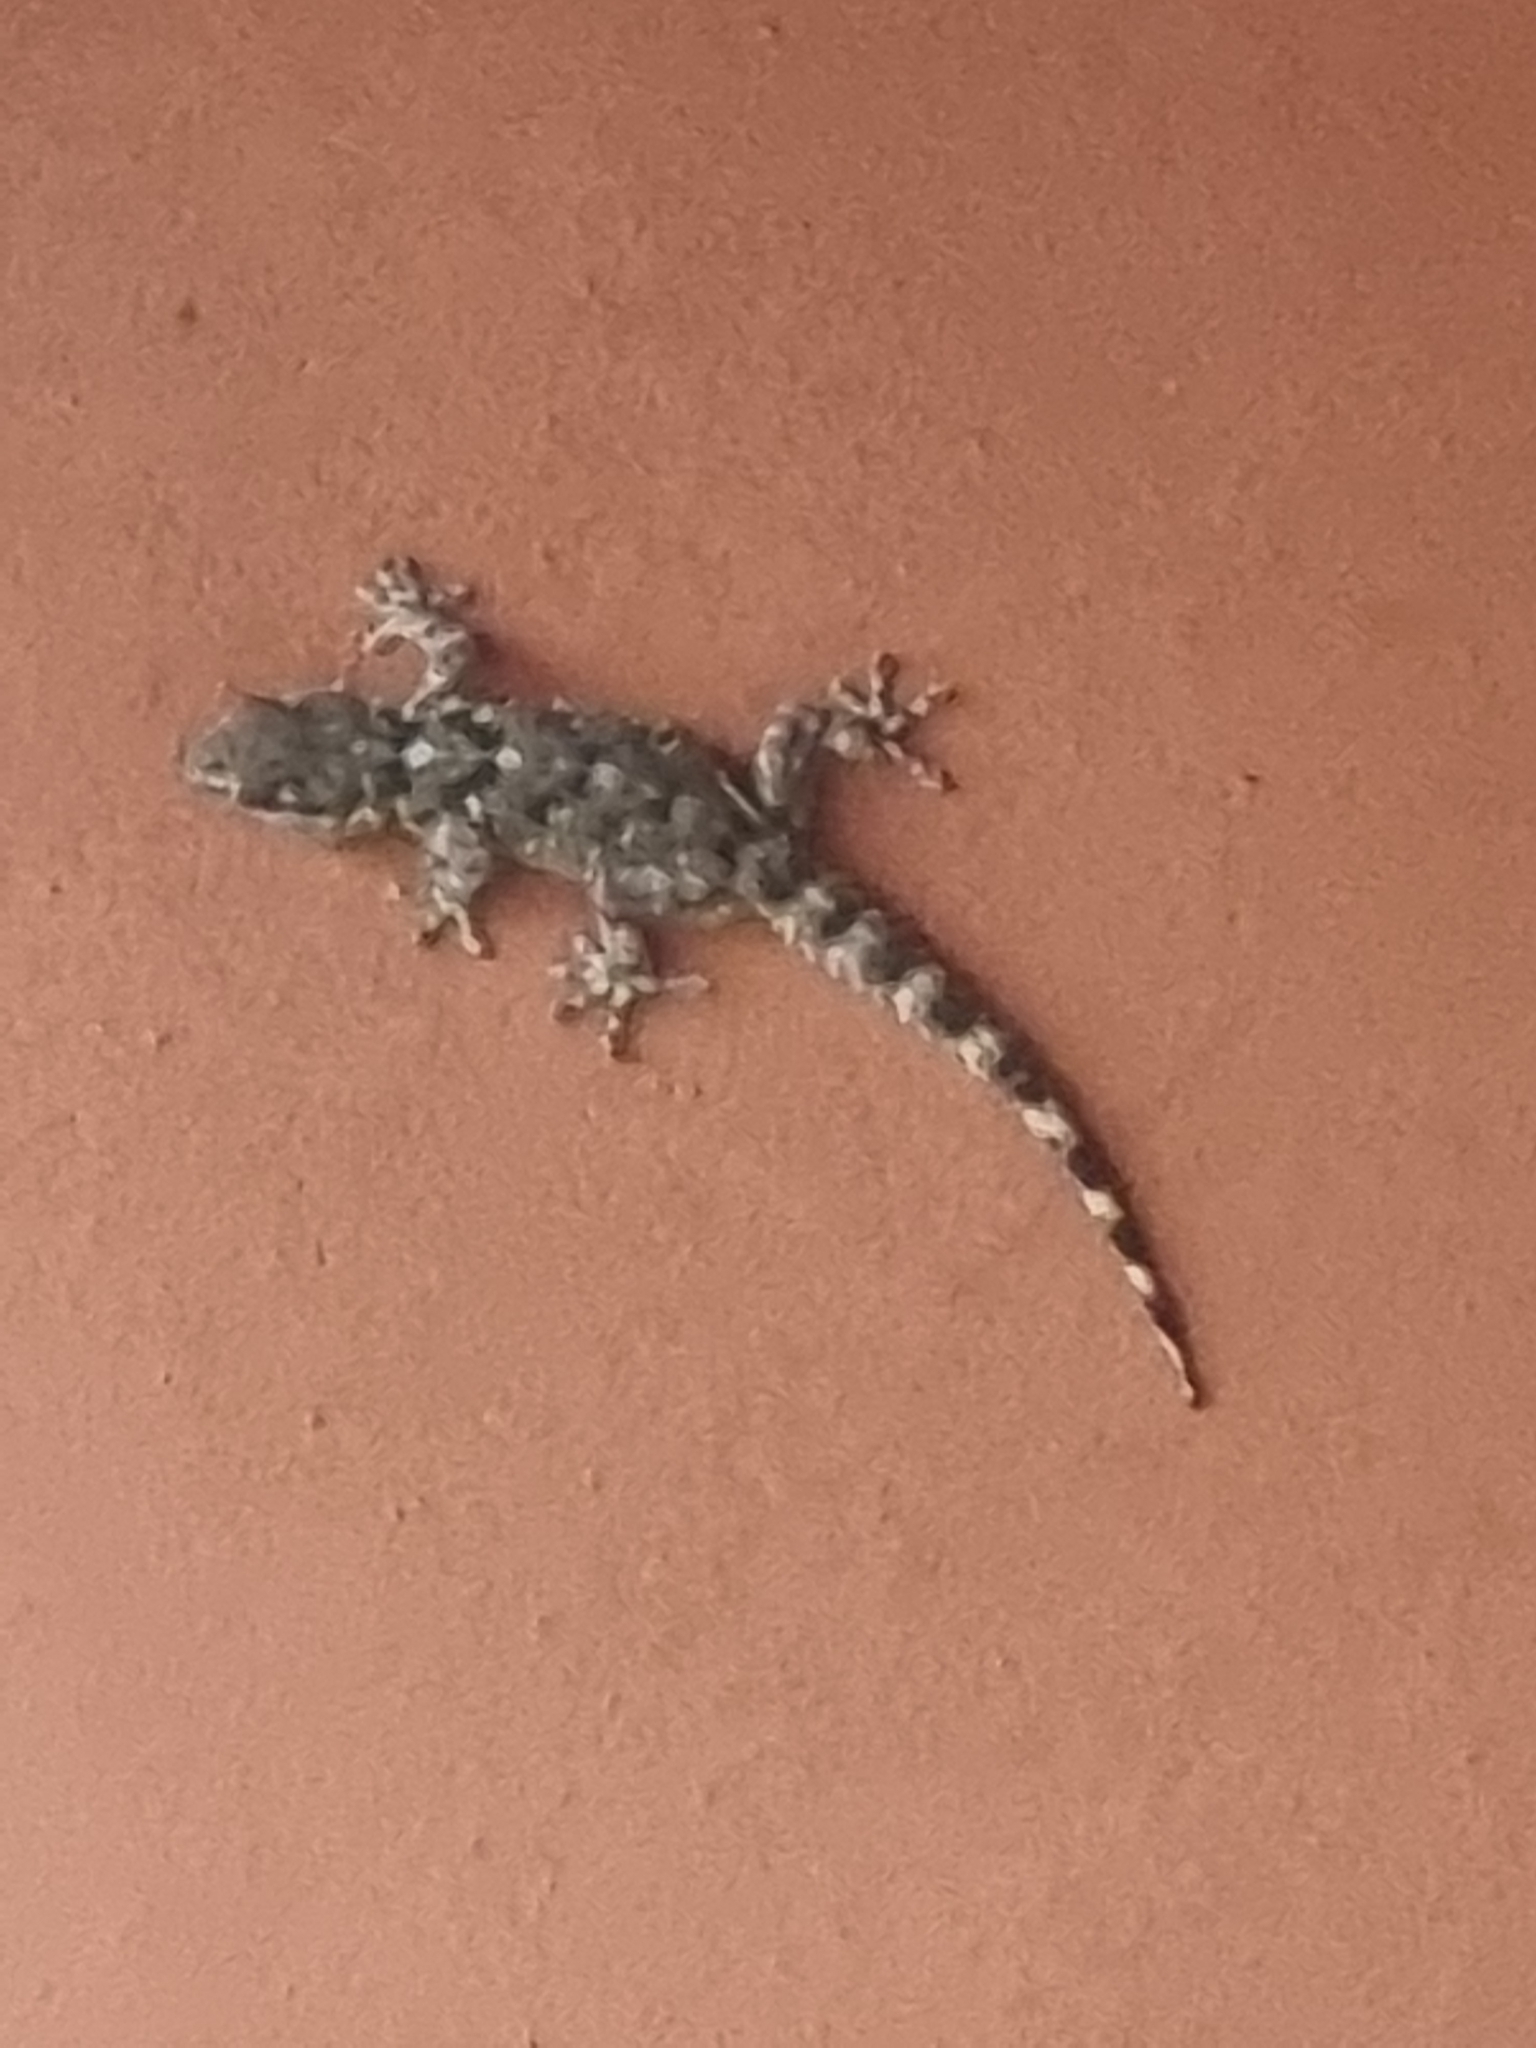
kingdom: Animalia
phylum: Chordata
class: Squamata
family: Phyllodactylidae
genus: Tarentola
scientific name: Tarentola mauritanica
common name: Moorish gecko
